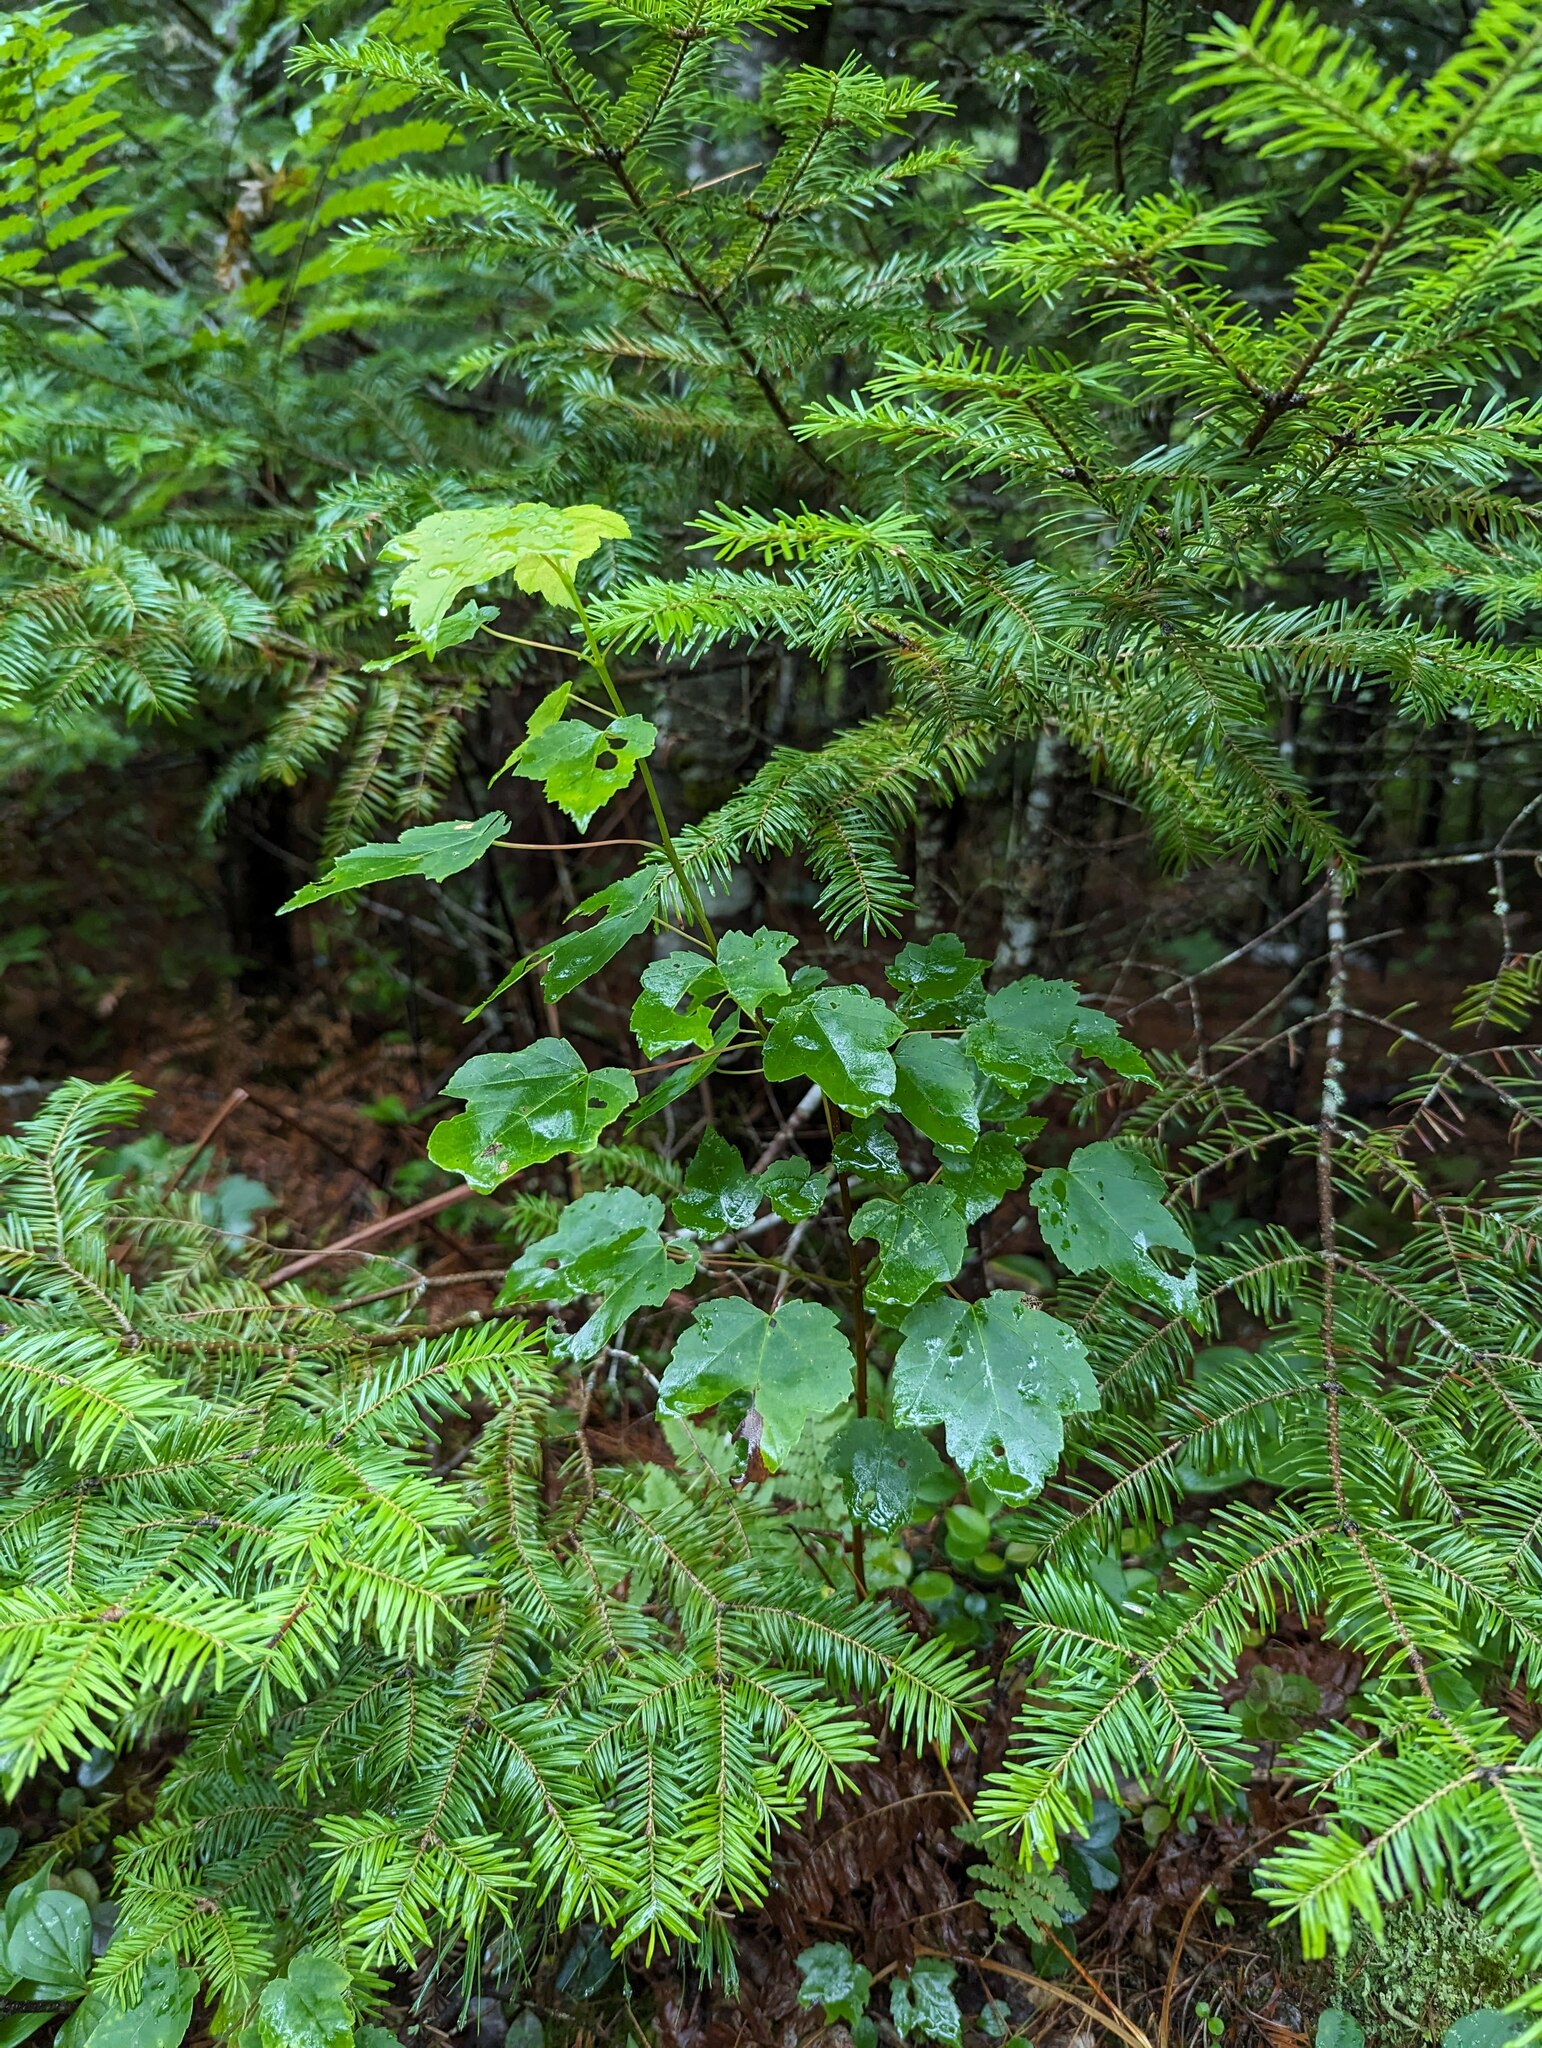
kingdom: Plantae
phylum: Tracheophyta
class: Magnoliopsida
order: Sapindales
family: Sapindaceae
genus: Acer
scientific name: Acer rubrum
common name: Red maple
